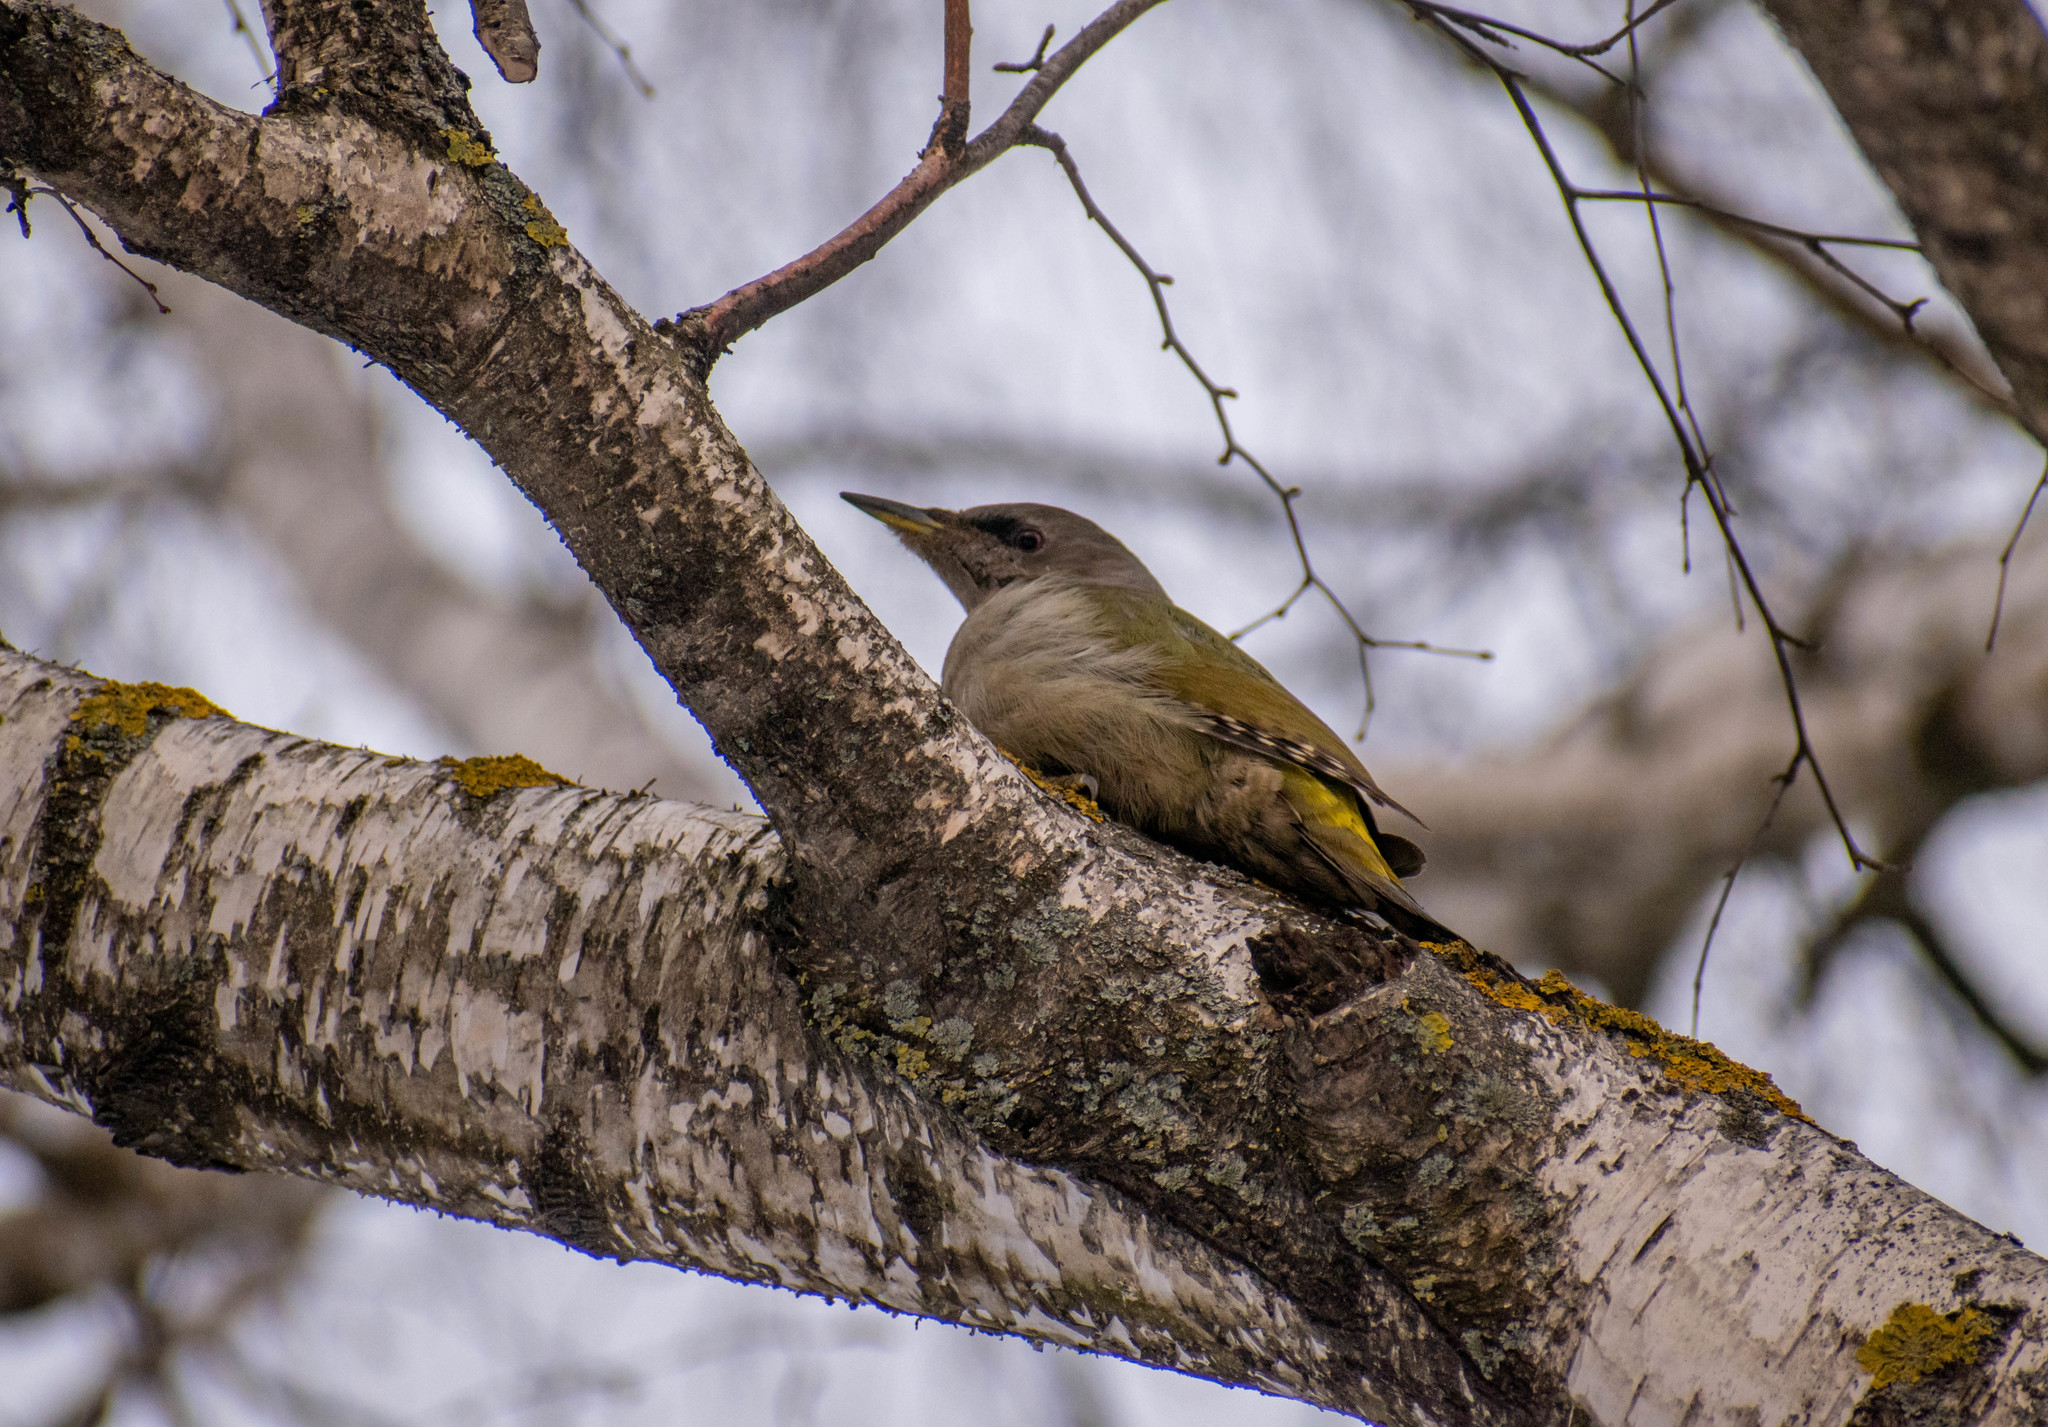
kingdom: Animalia
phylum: Chordata
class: Aves
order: Piciformes
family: Picidae
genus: Picus
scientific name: Picus canus
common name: Grey-headed woodpecker
